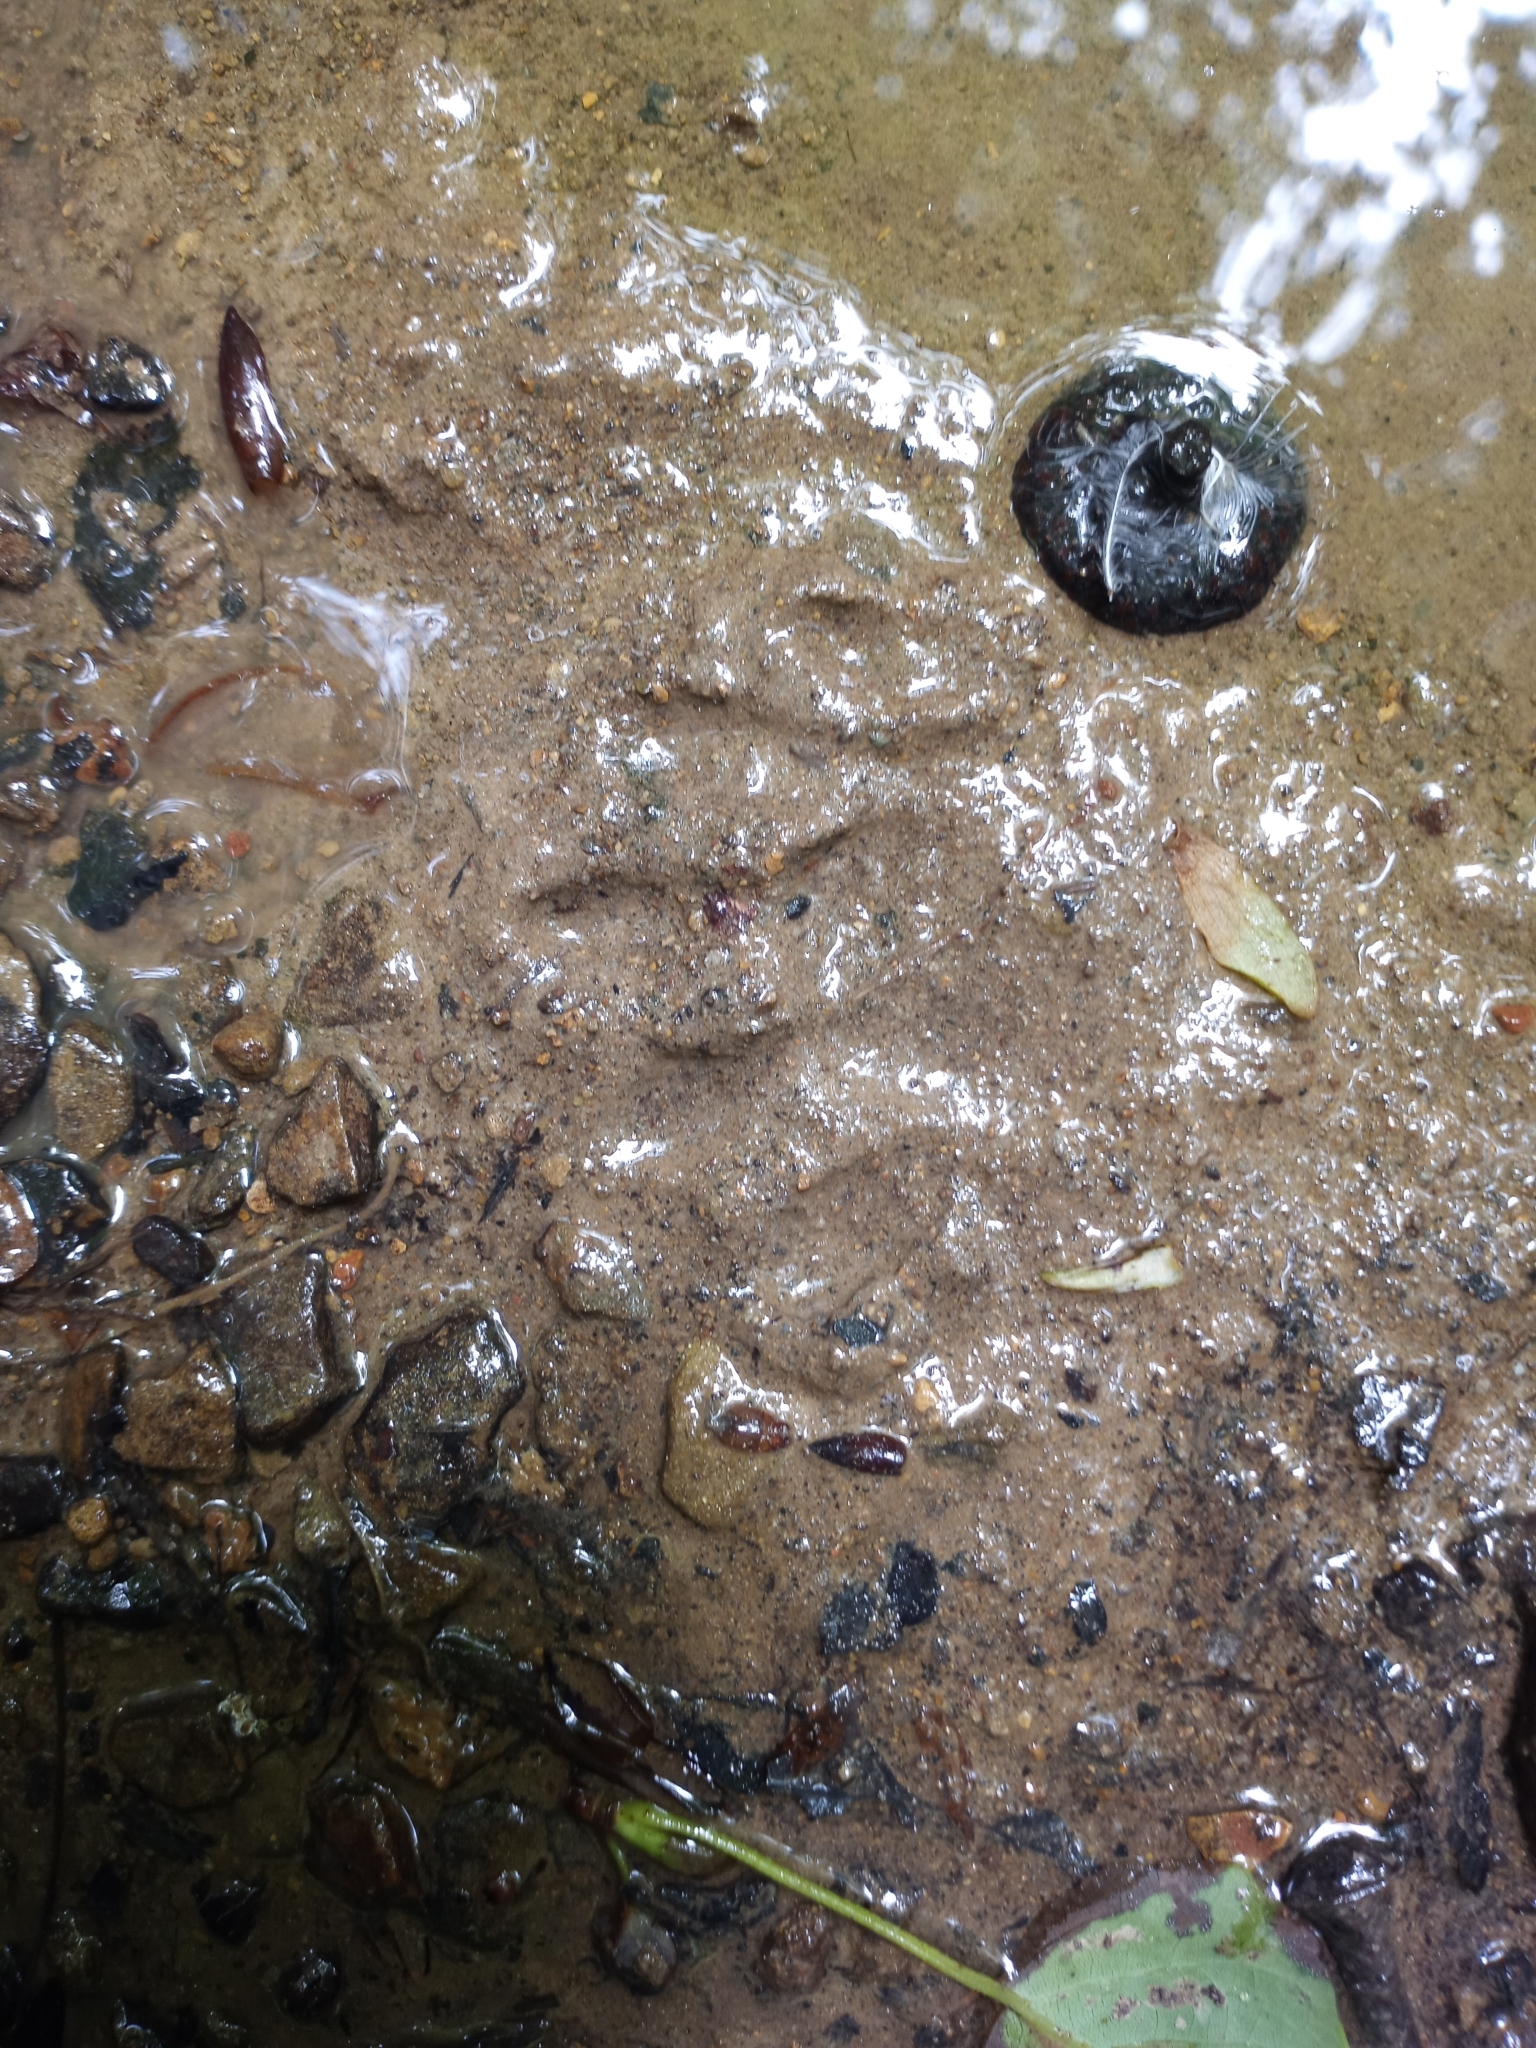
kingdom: Animalia
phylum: Chordata
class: Mammalia
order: Carnivora
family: Procyonidae
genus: Procyon
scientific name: Procyon lotor
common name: Raccoon
